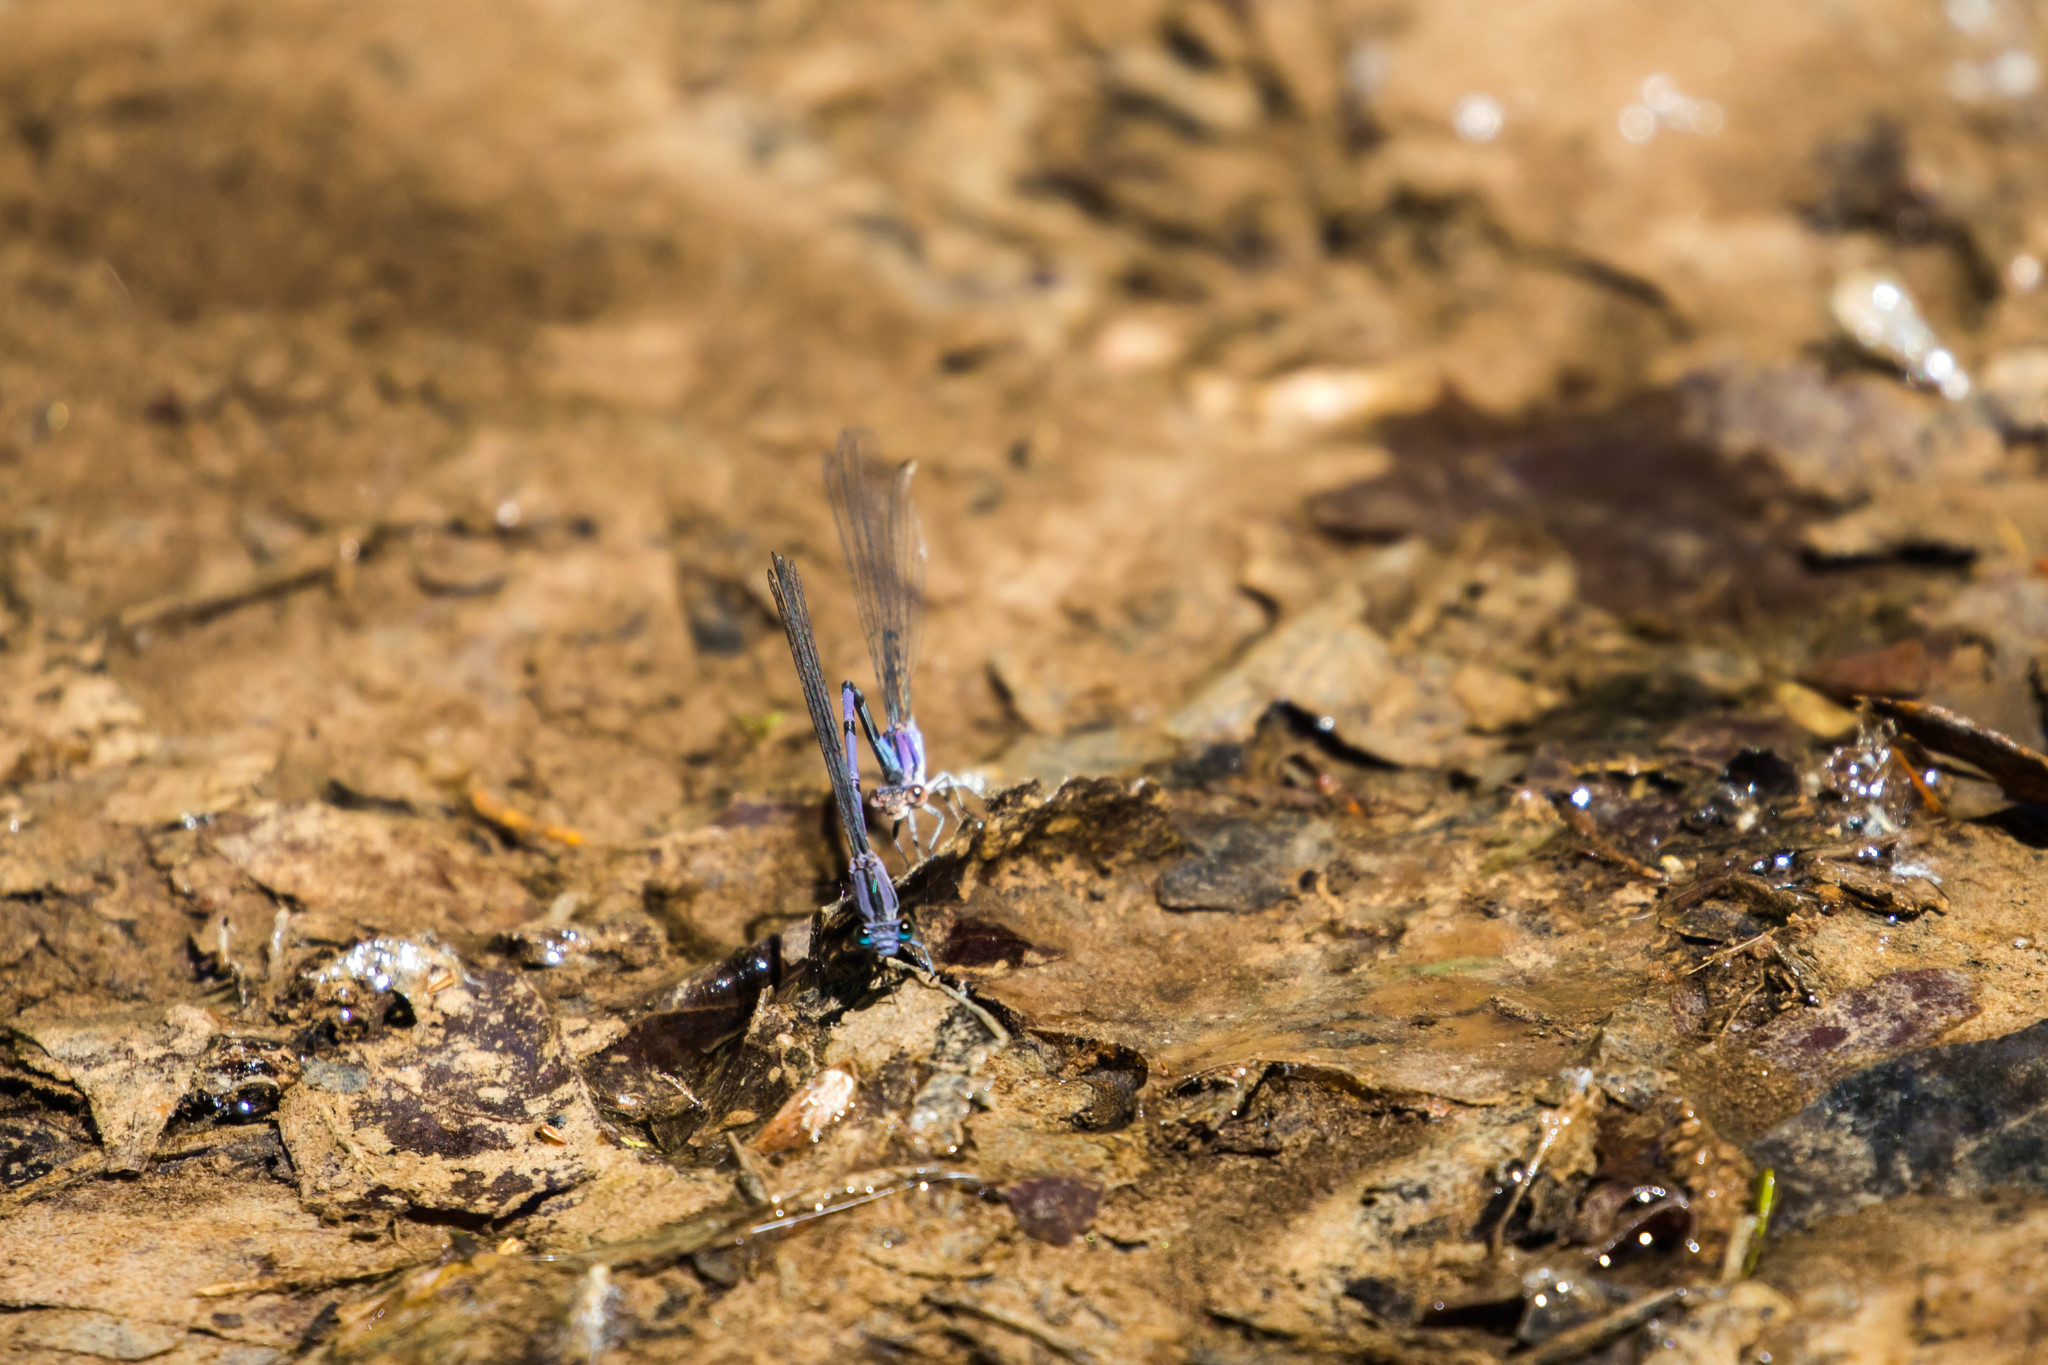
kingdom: Animalia
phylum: Arthropoda
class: Insecta
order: Odonata
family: Coenagrionidae
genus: Argia
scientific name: Argia funebris
